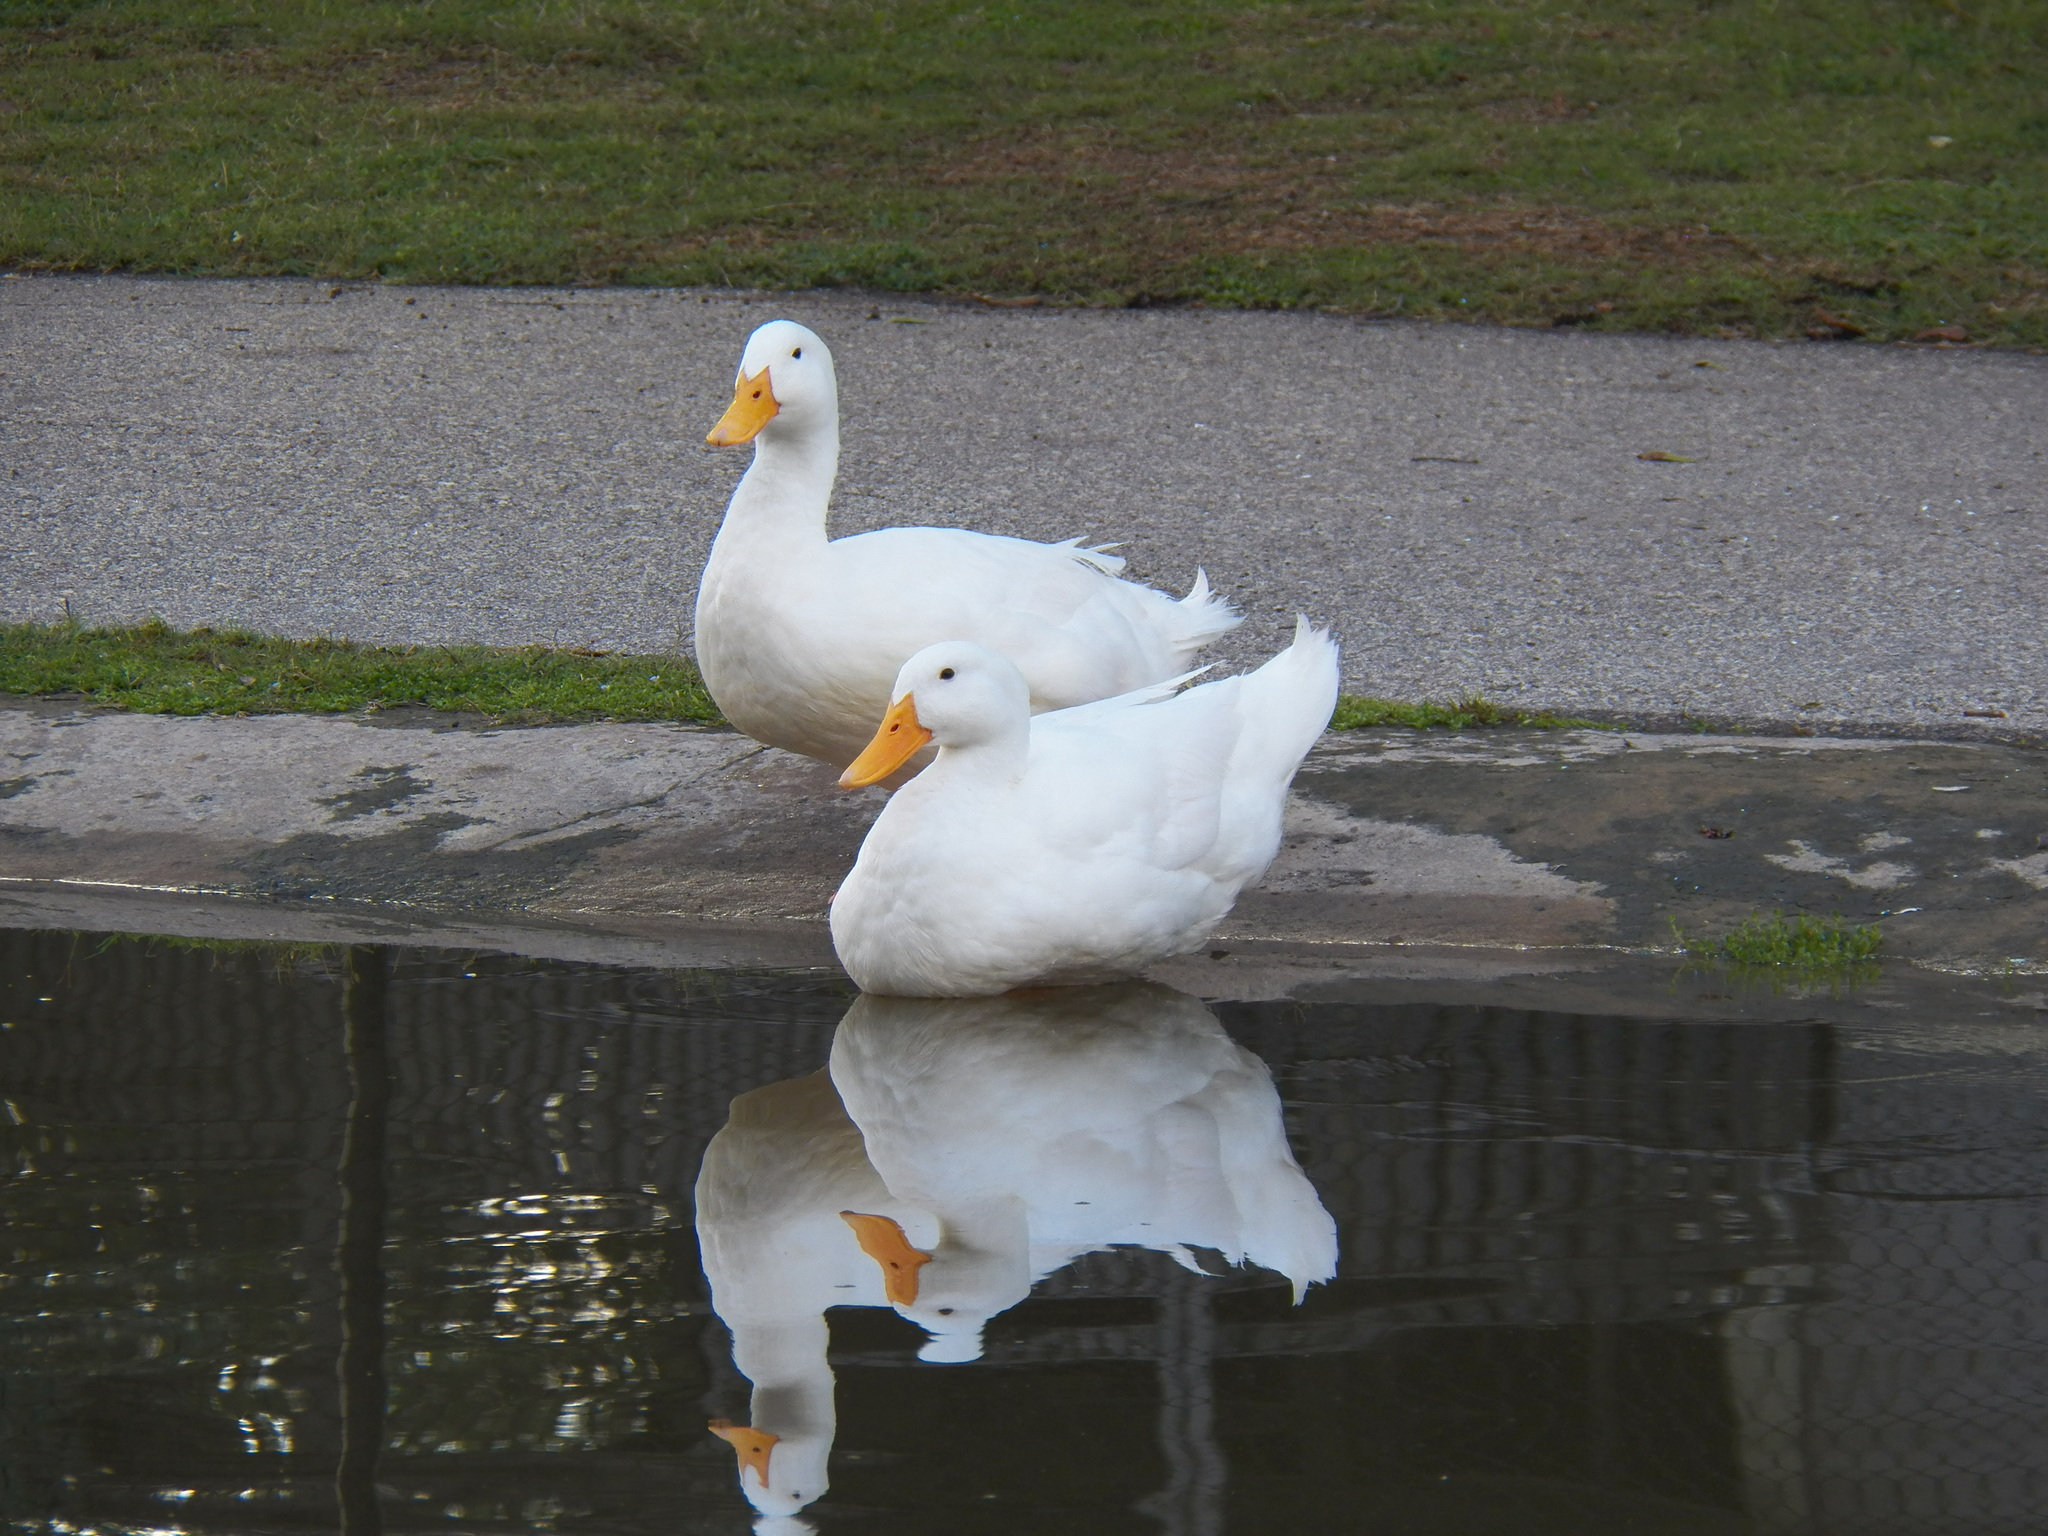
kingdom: Animalia
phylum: Chordata
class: Aves
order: Anseriformes
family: Anatidae
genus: Anas
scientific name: Anas platyrhynchos
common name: Mallard
